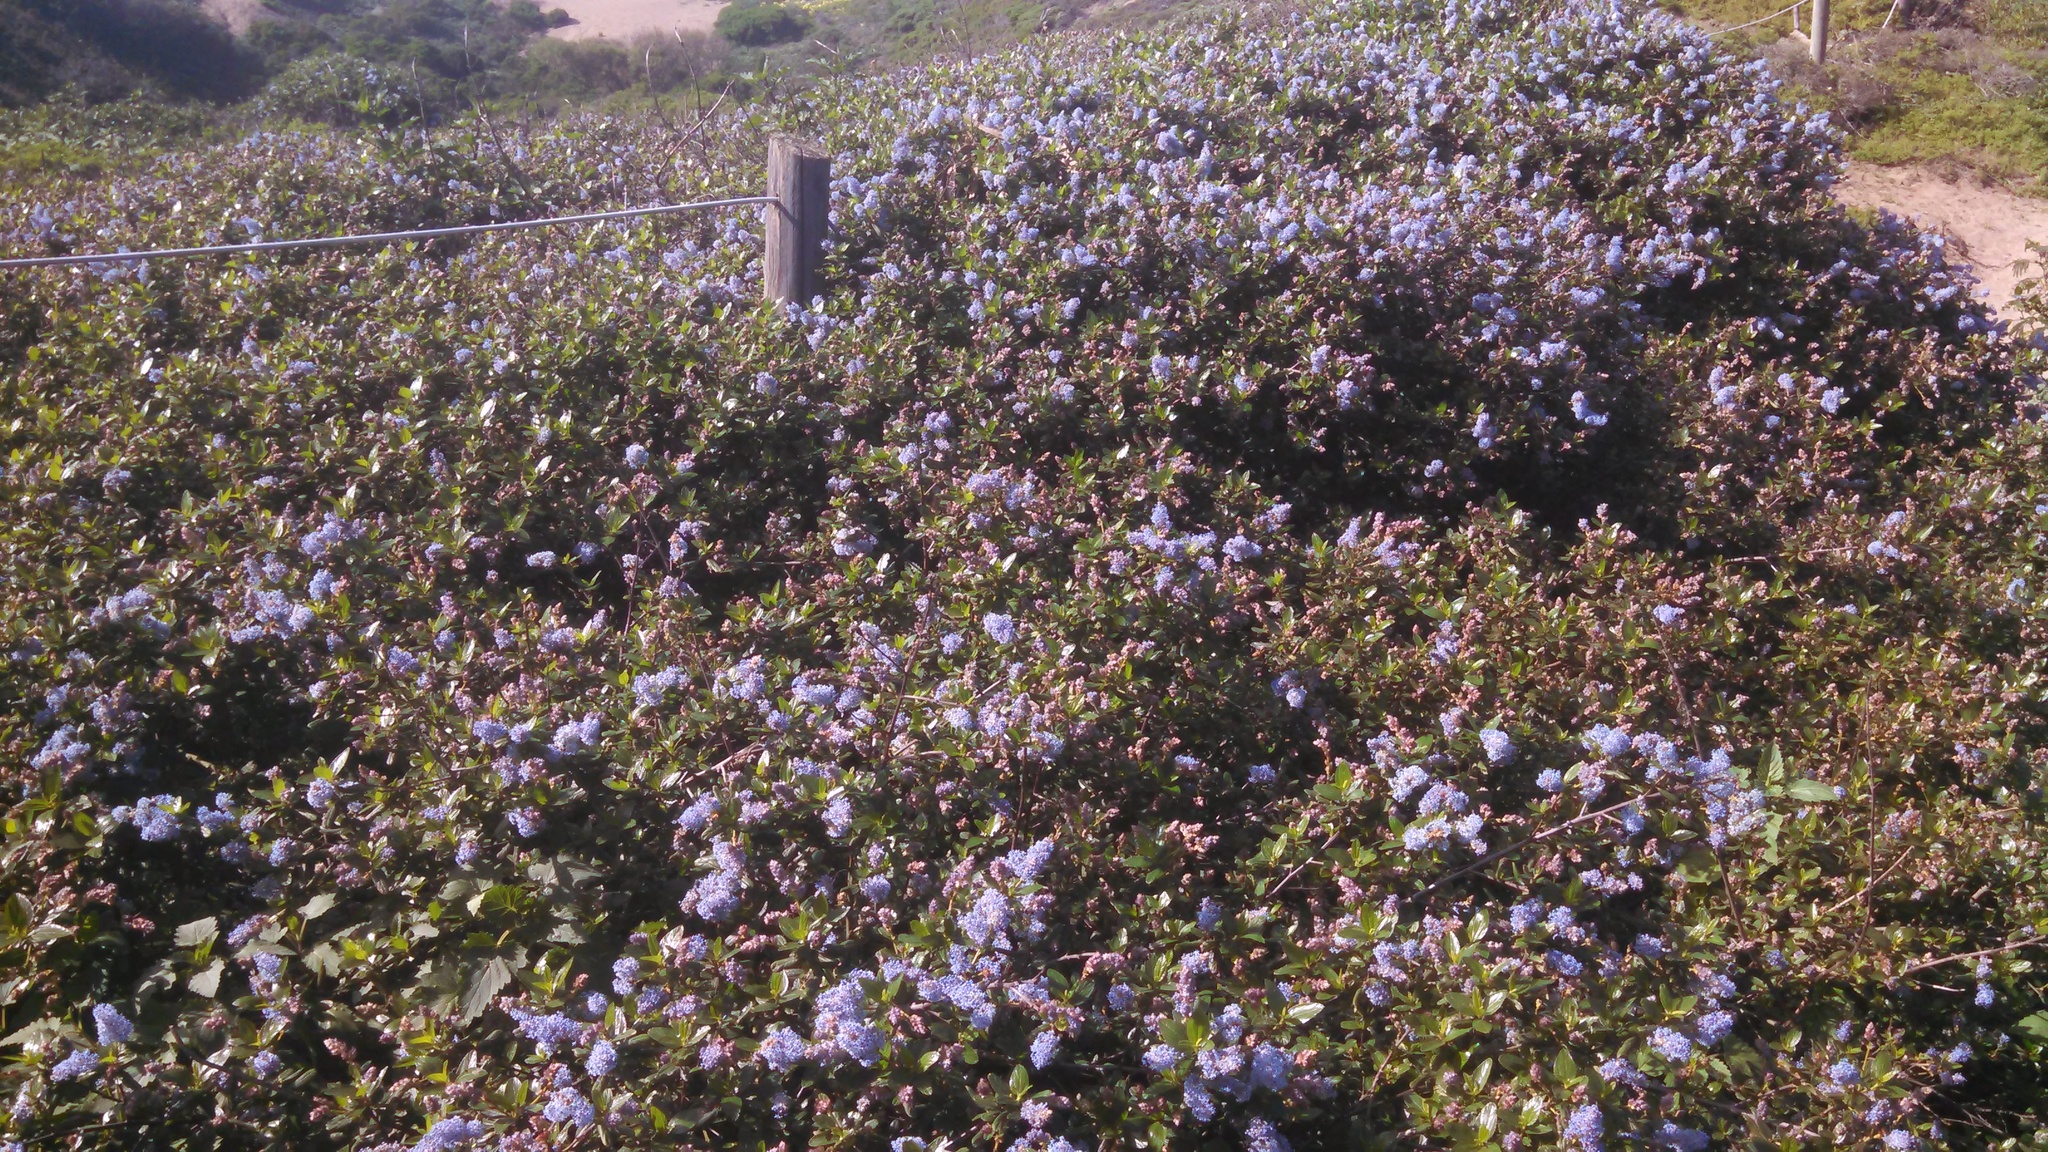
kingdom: Plantae
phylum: Tracheophyta
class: Magnoliopsida
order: Rosales
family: Rhamnaceae
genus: Ceanothus
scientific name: Ceanothus thyrsiflorus
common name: California-lilac
